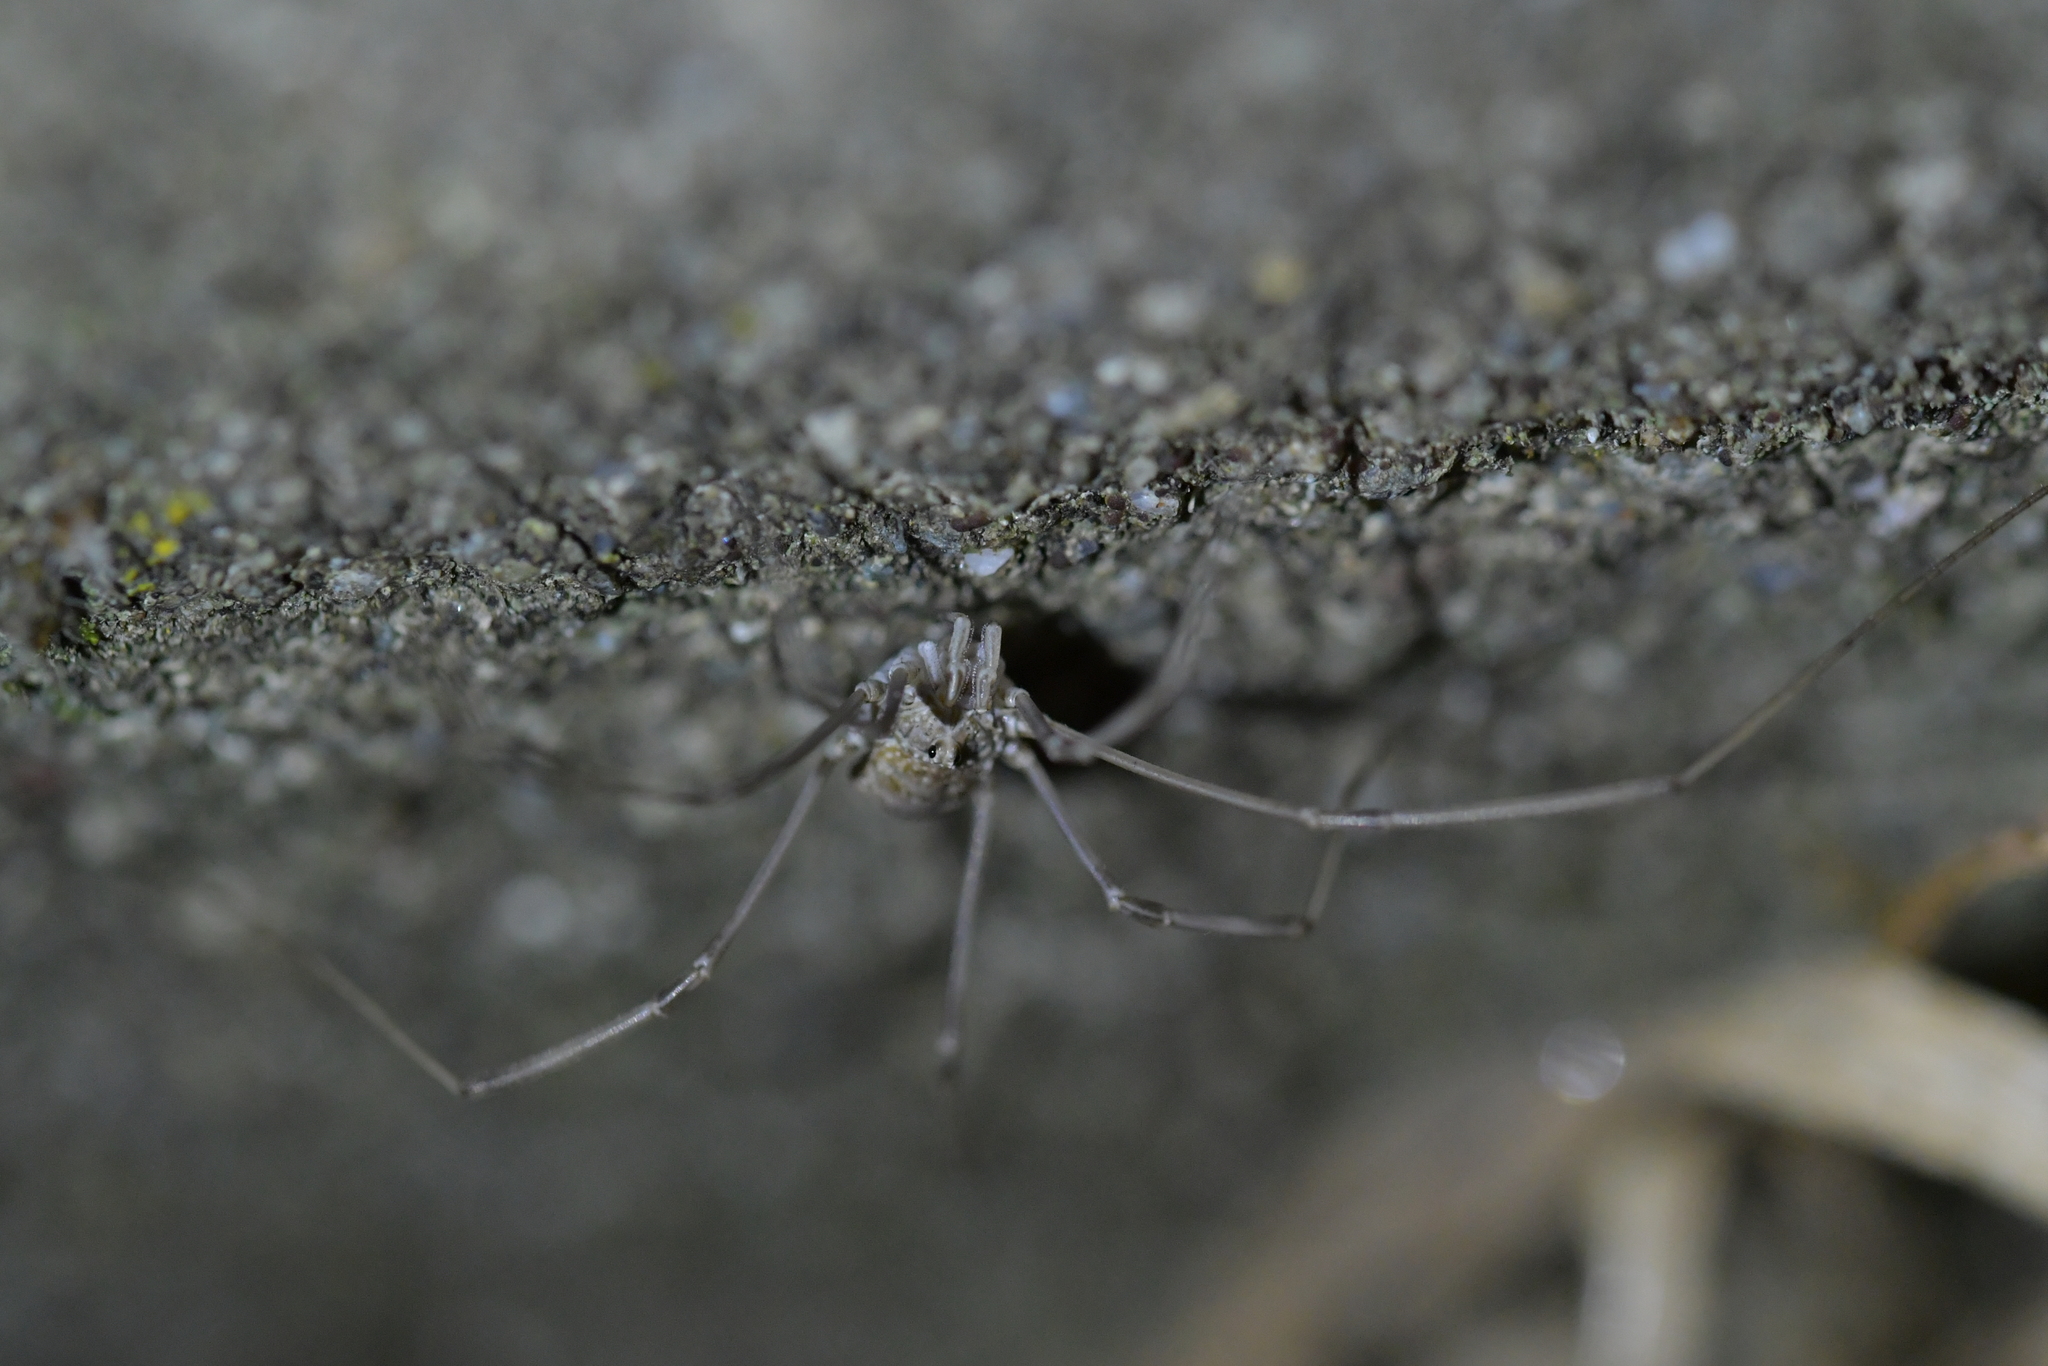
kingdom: Animalia
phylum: Arthropoda
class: Arachnida
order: Opiliones
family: Phalangiidae
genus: Phalangium
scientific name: Phalangium opilio
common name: Daddy longleg
